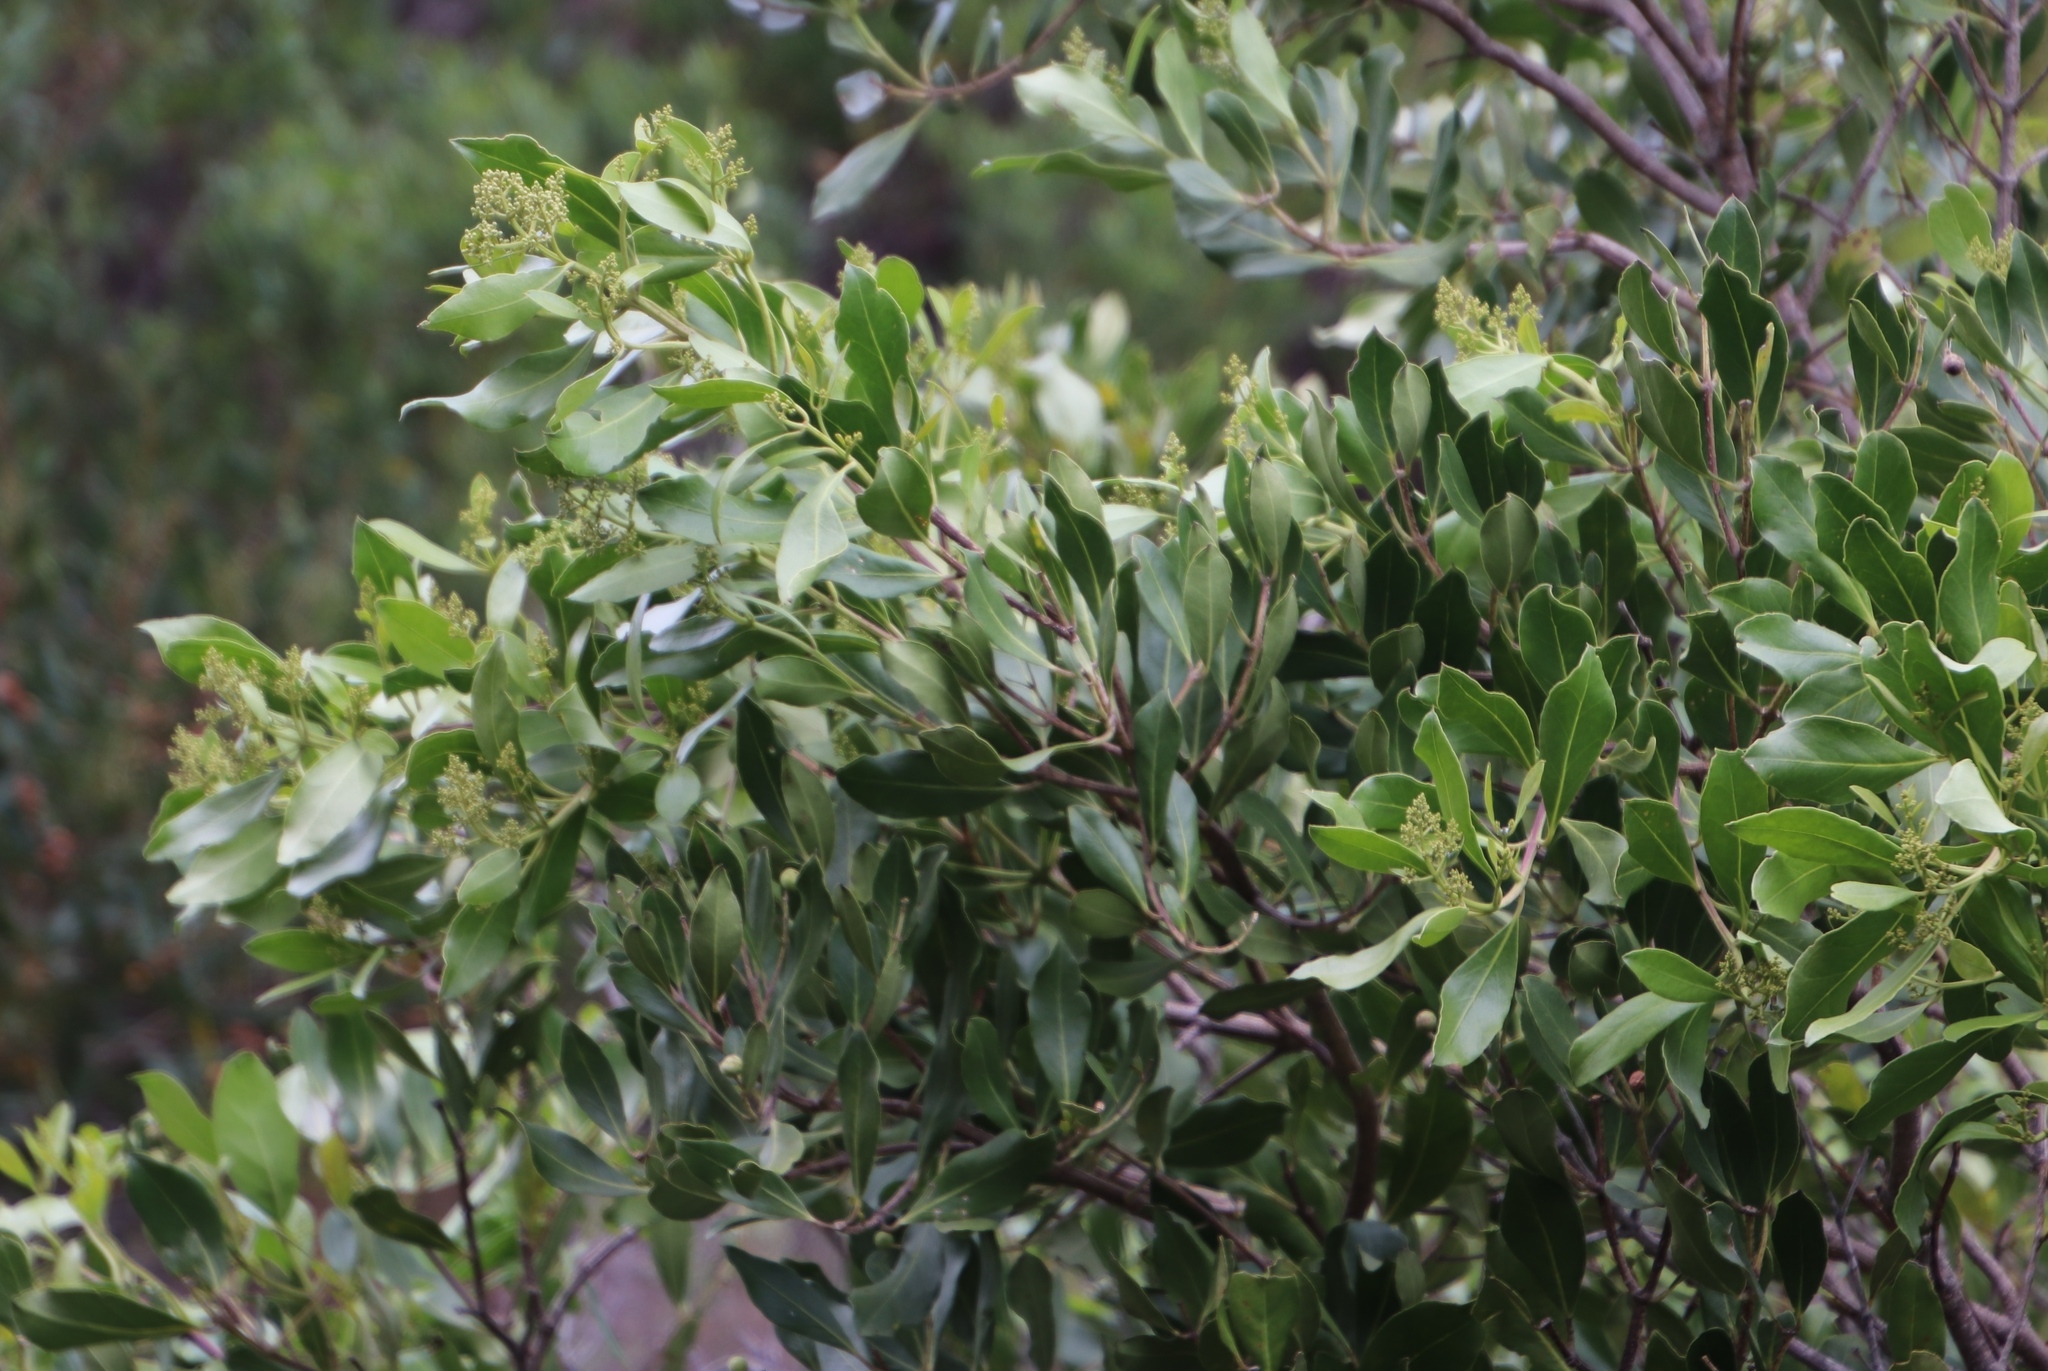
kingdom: Plantae
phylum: Tracheophyta
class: Magnoliopsida
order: Lamiales
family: Oleaceae
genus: Olea
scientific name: Olea capensis
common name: Black ironwood
